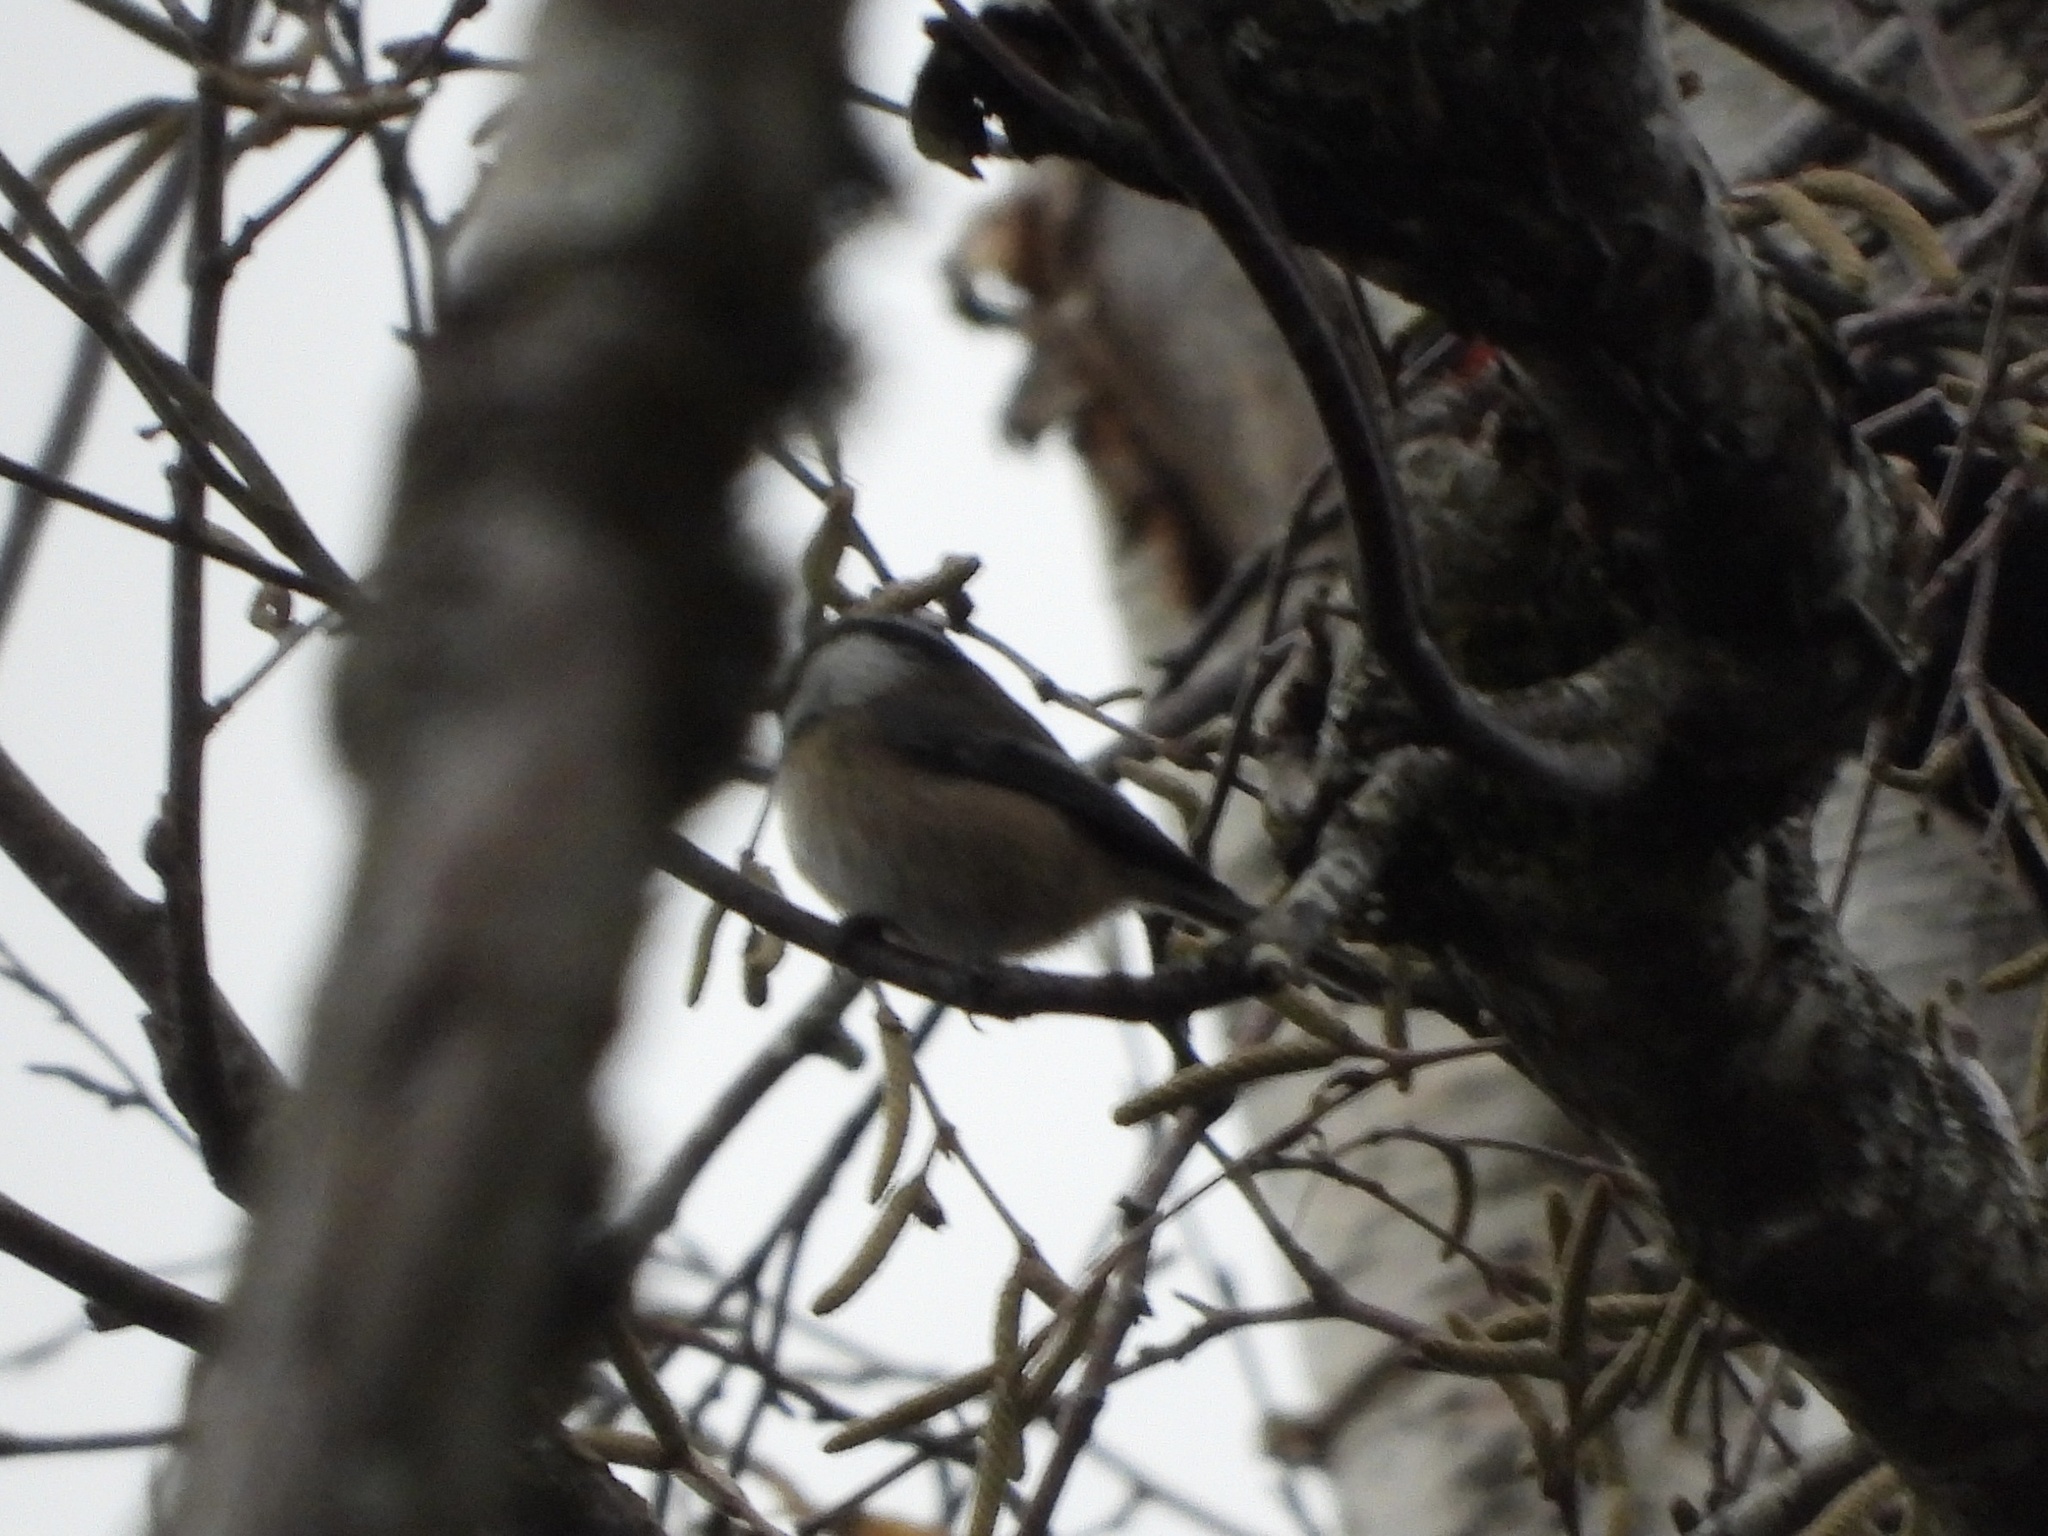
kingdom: Animalia
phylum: Chordata
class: Aves
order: Passeriformes
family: Paridae
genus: Poecile
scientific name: Poecile atricapillus
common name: Black-capped chickadee
